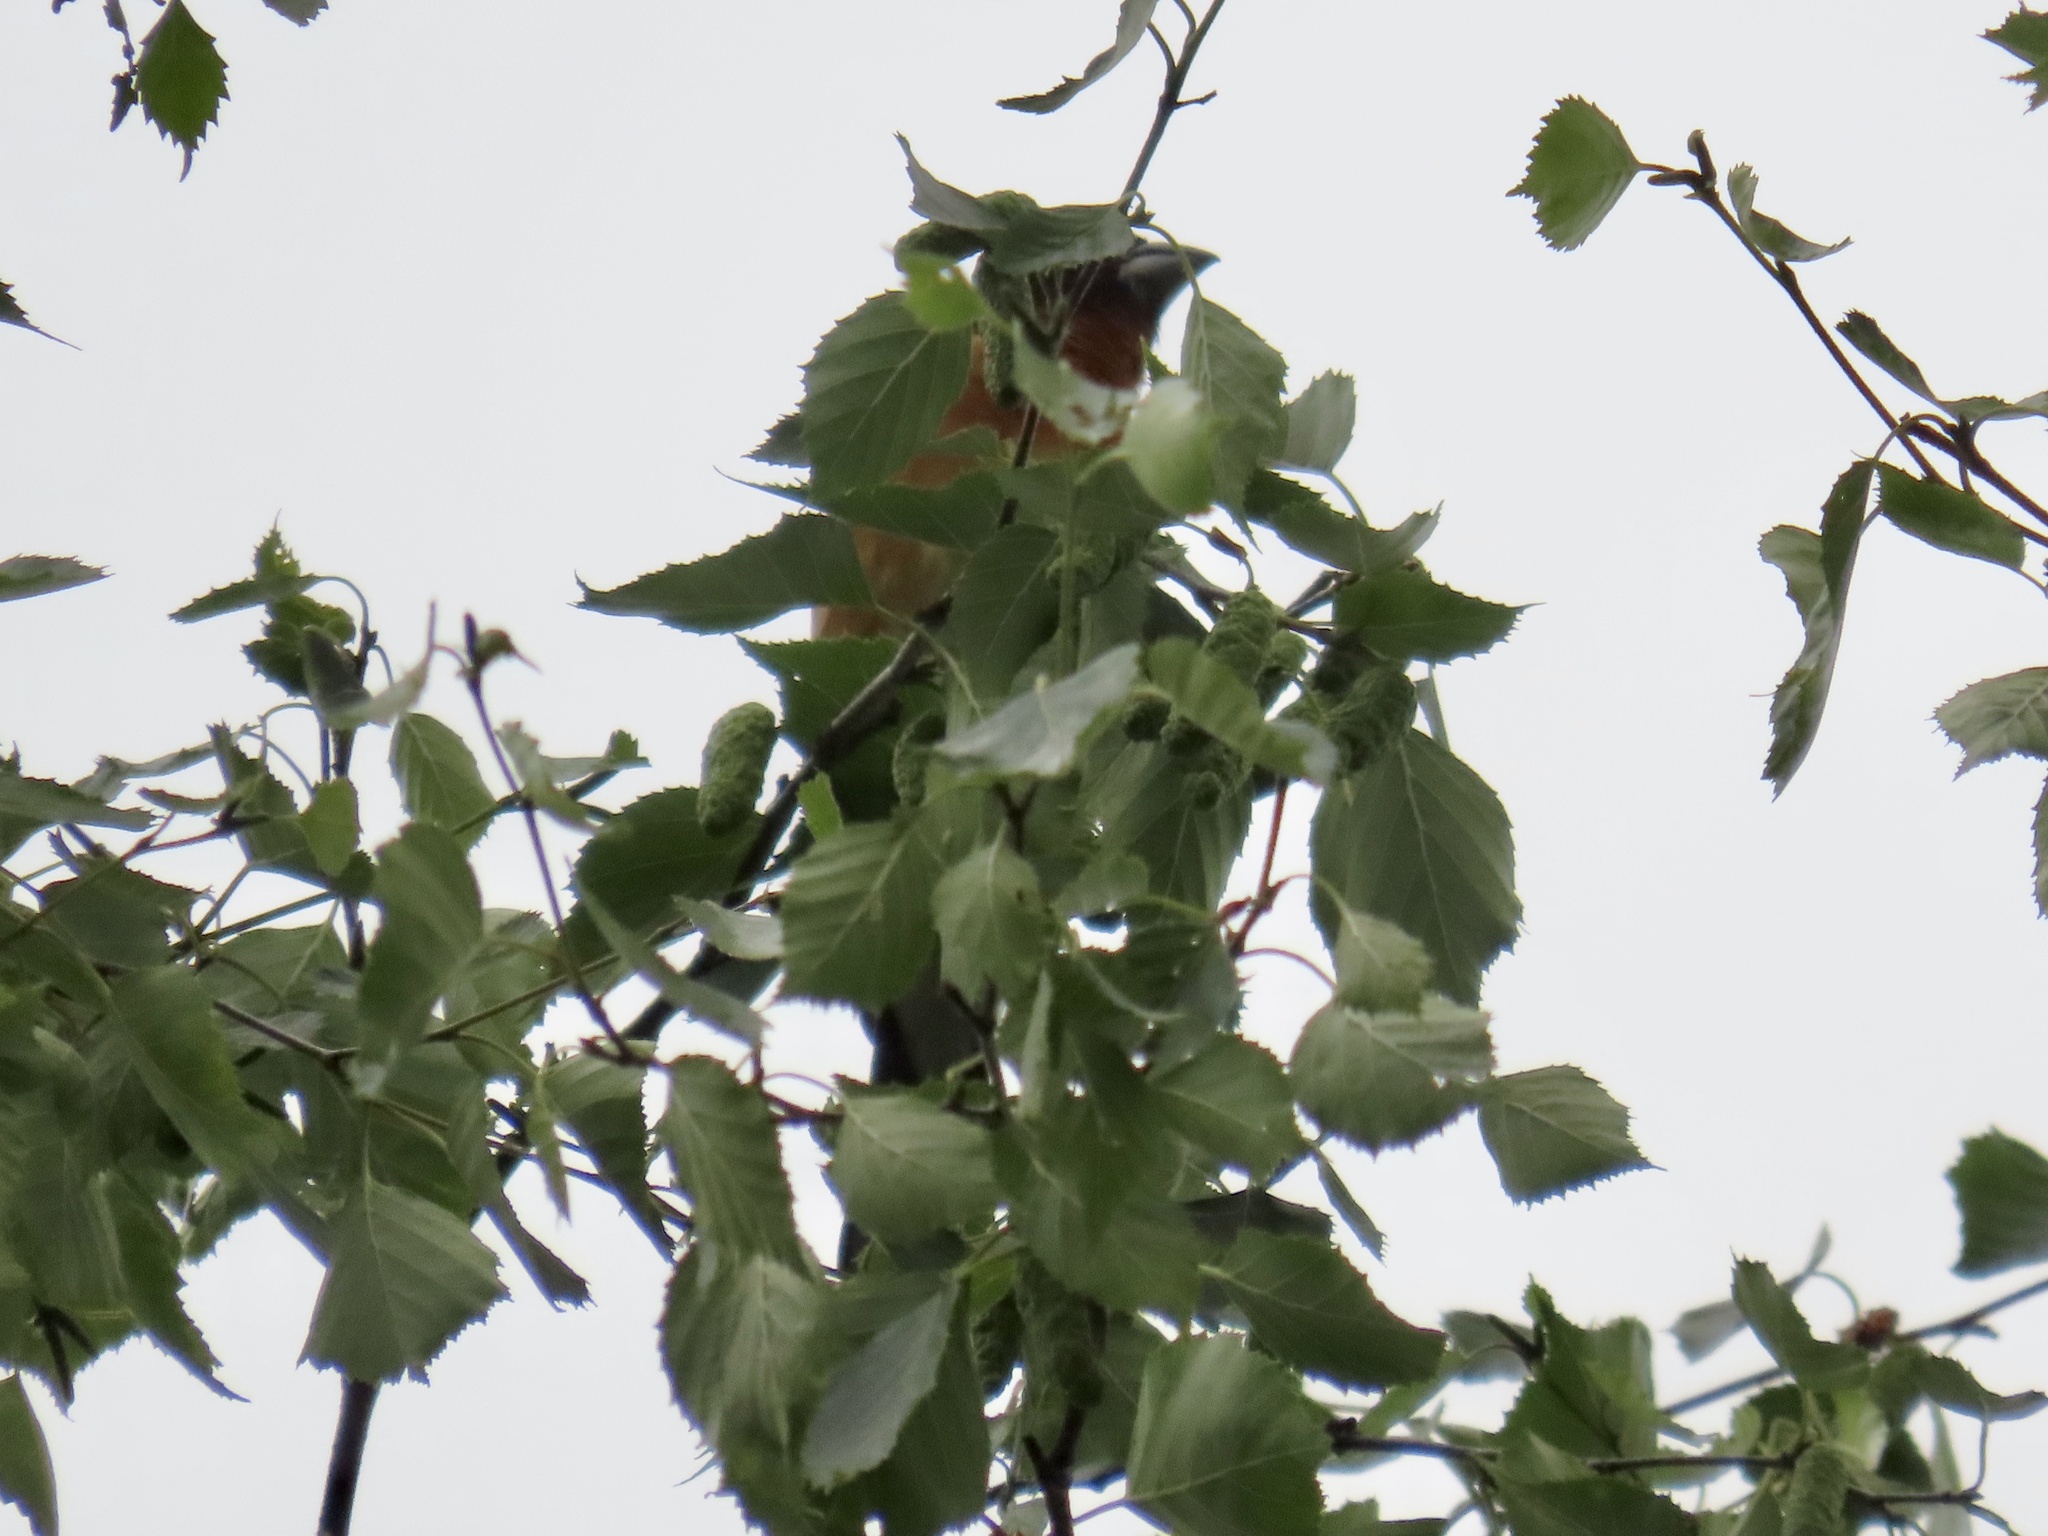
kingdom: Animalia
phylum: Chordata
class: Aves
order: Passeriformes
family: Cardinalidae
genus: Pheucticus
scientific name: Pheucticus melanocephalus
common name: Black-headed grosbeak
